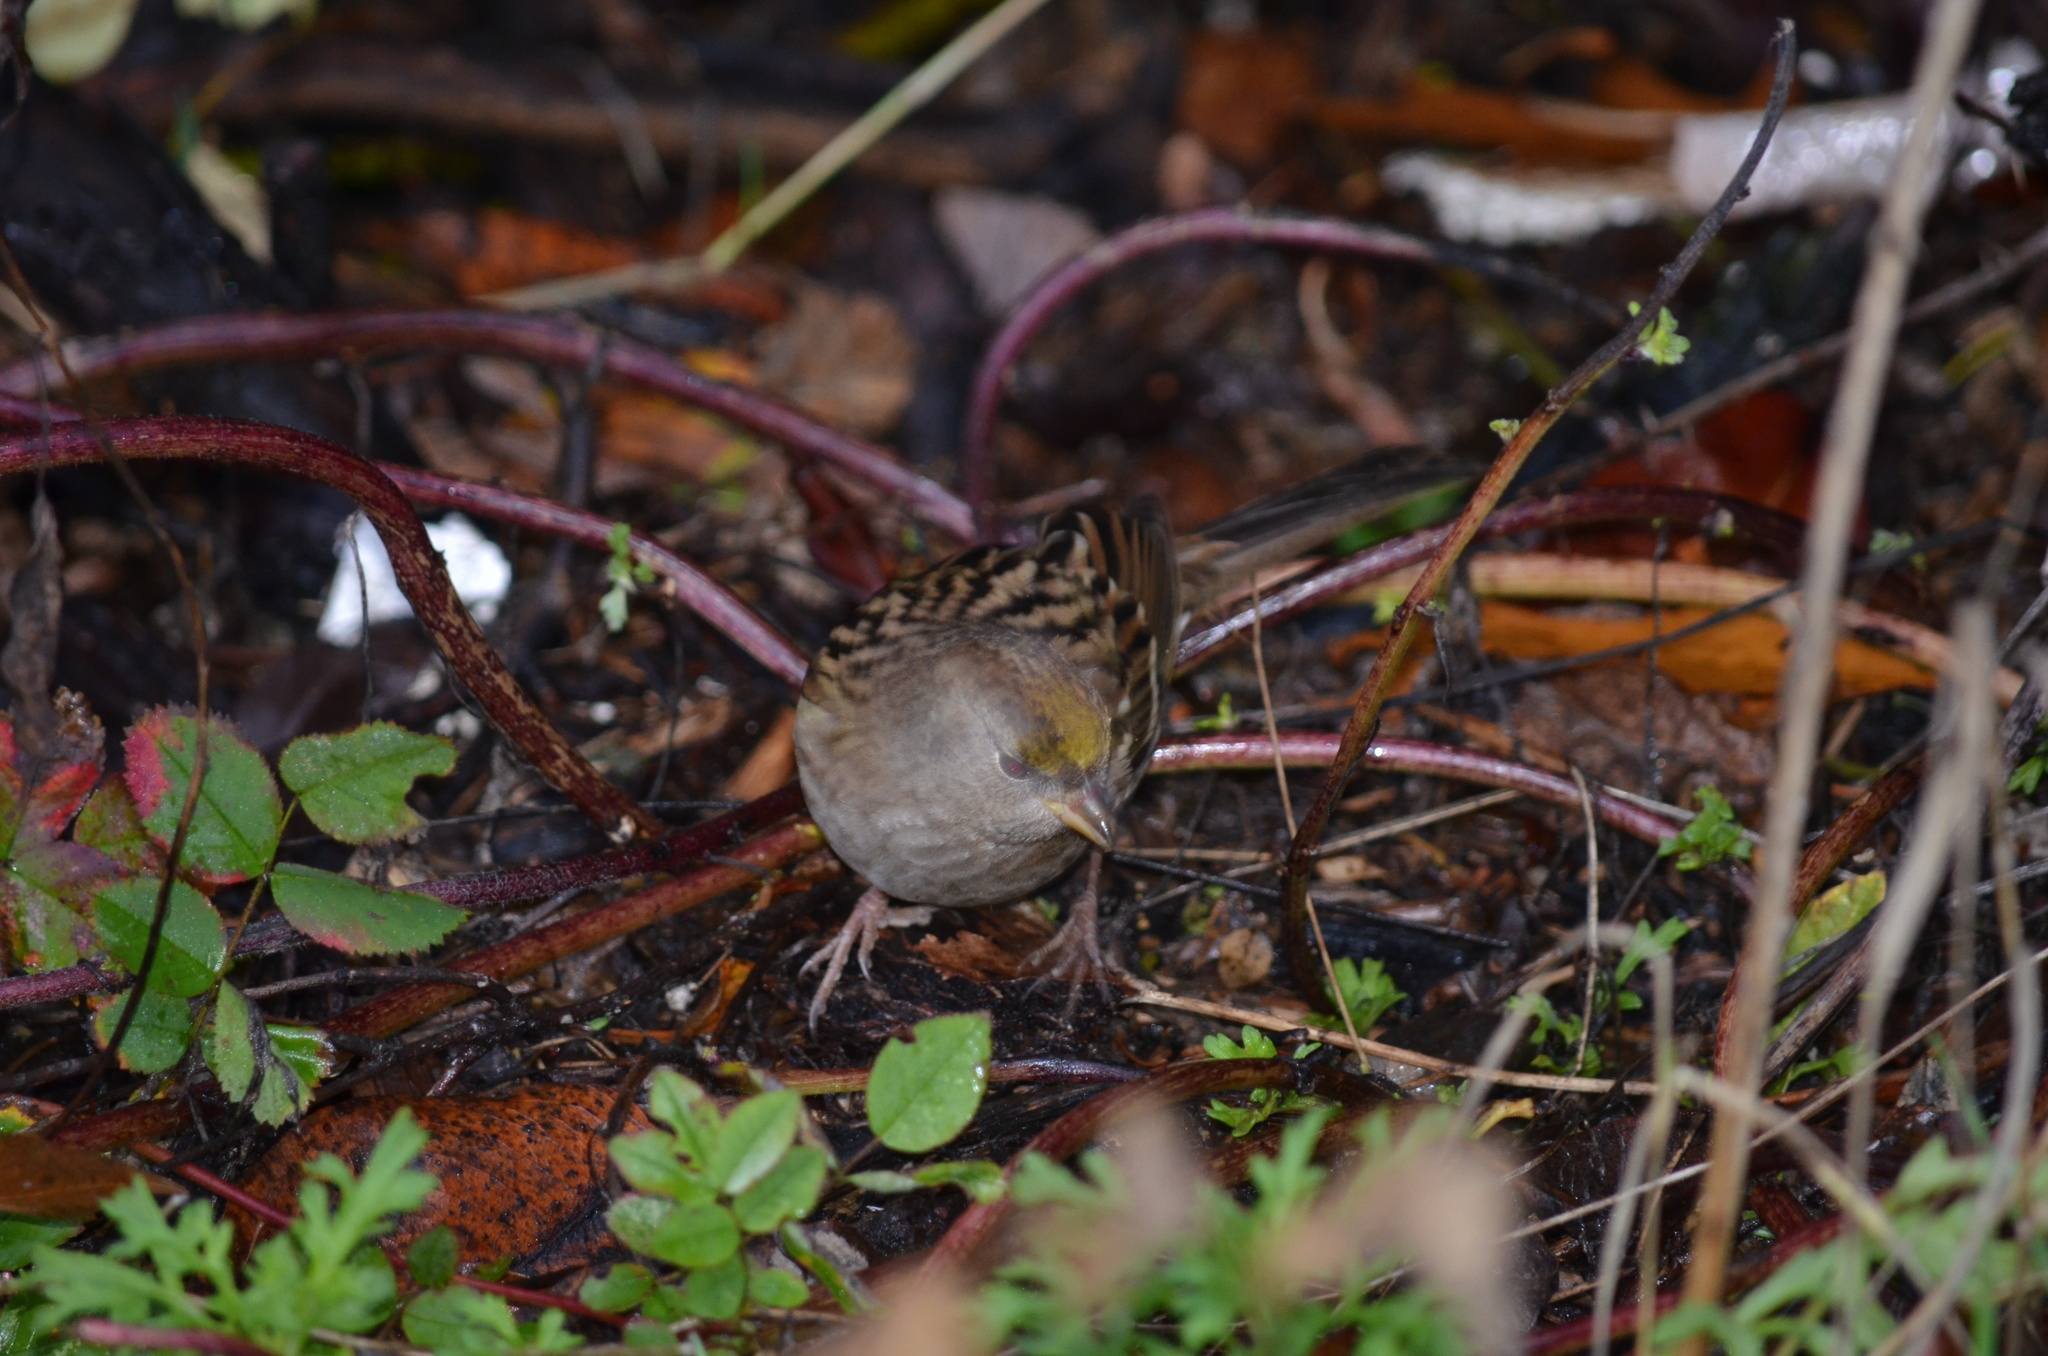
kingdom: Animalia
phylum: Chordata
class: Aves
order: Passeriformes
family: Passerellidae
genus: Zonotrichia
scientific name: Zonotrichia atricapilla
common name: Golden-crowned sparrow
